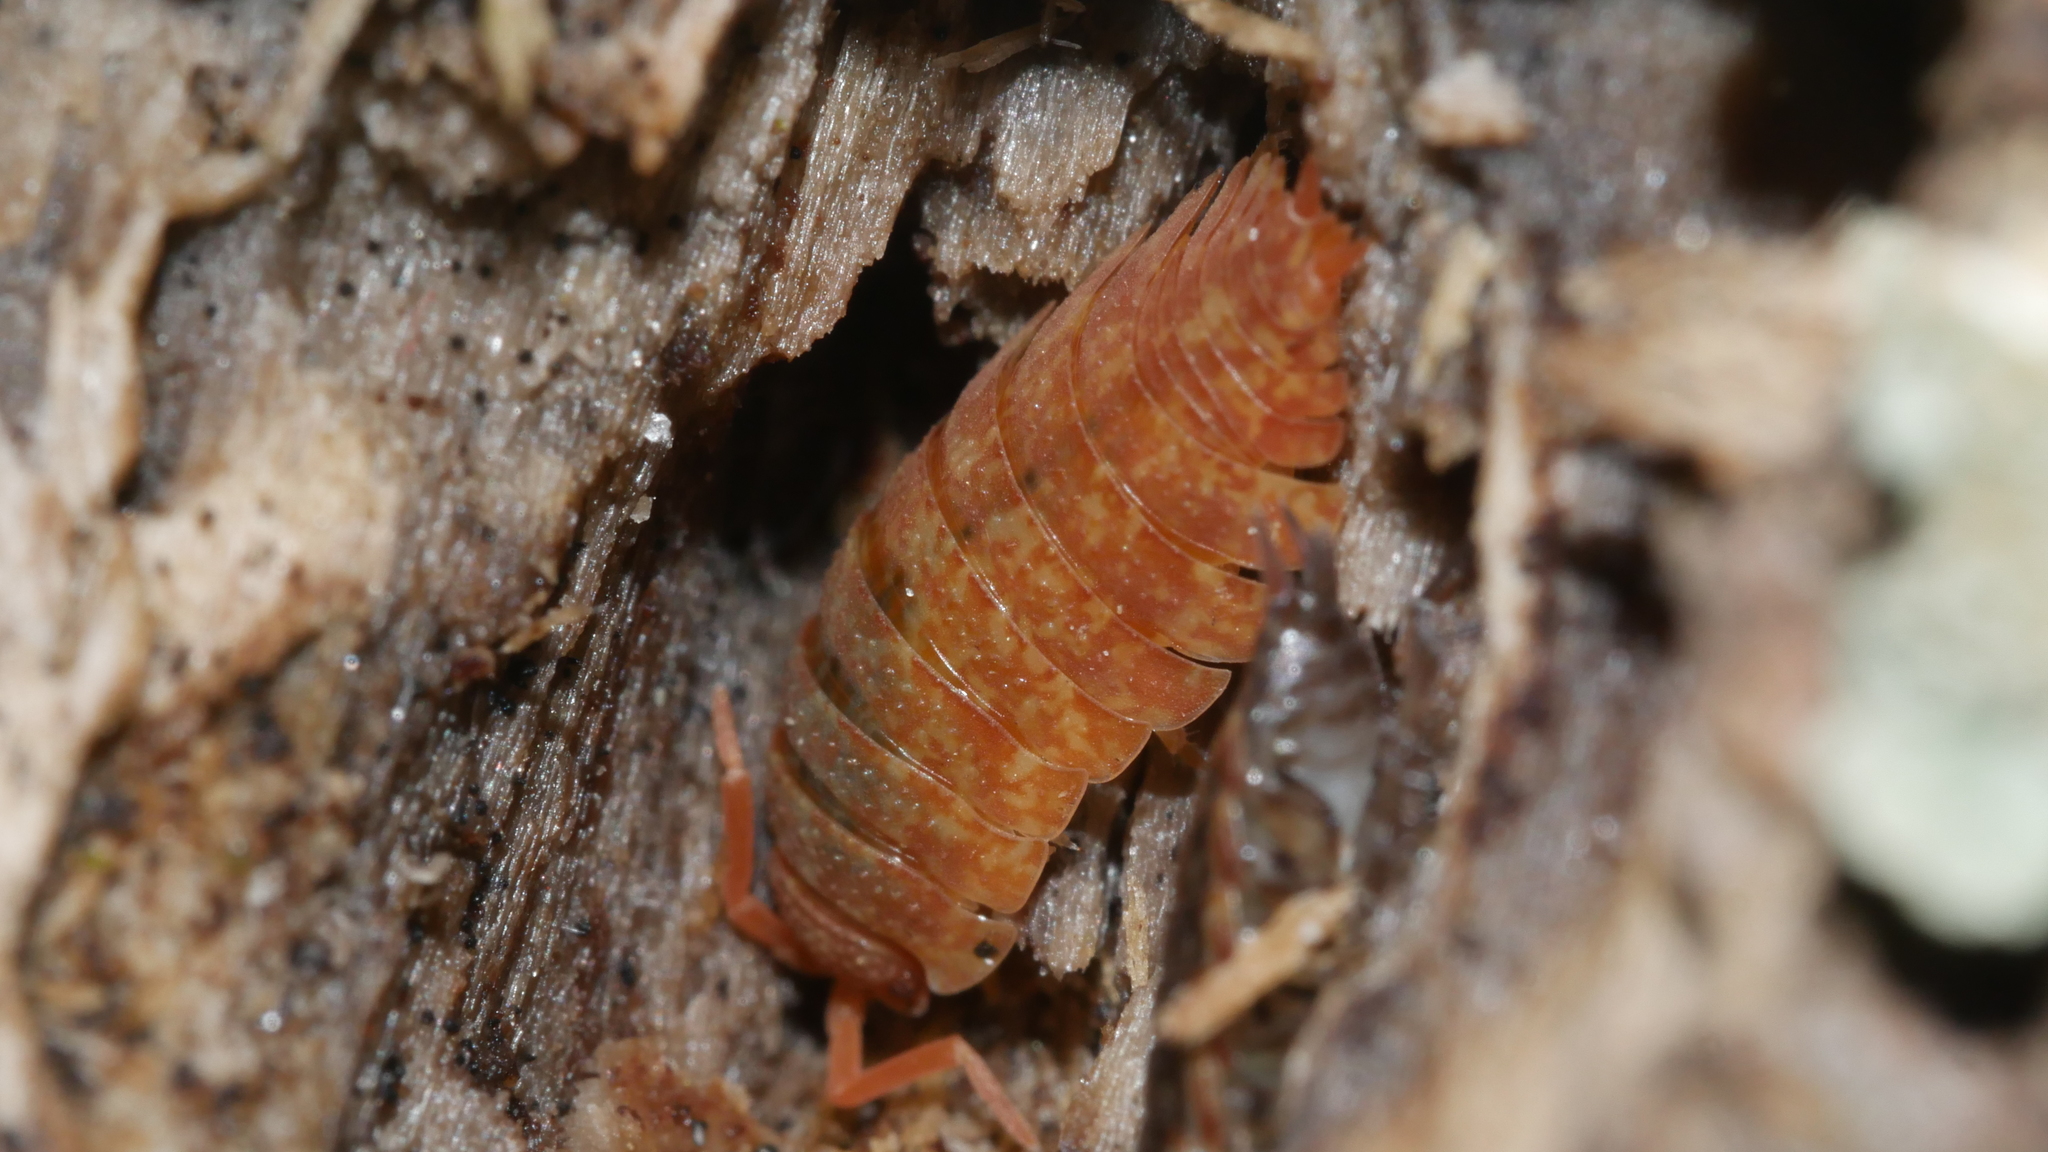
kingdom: Animalia
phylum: Arthropoda
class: Malacostraca
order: Isopoda
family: Porcellionidae
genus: Porcellio
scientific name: Porcellio scaber
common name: Common rough woodlouse
